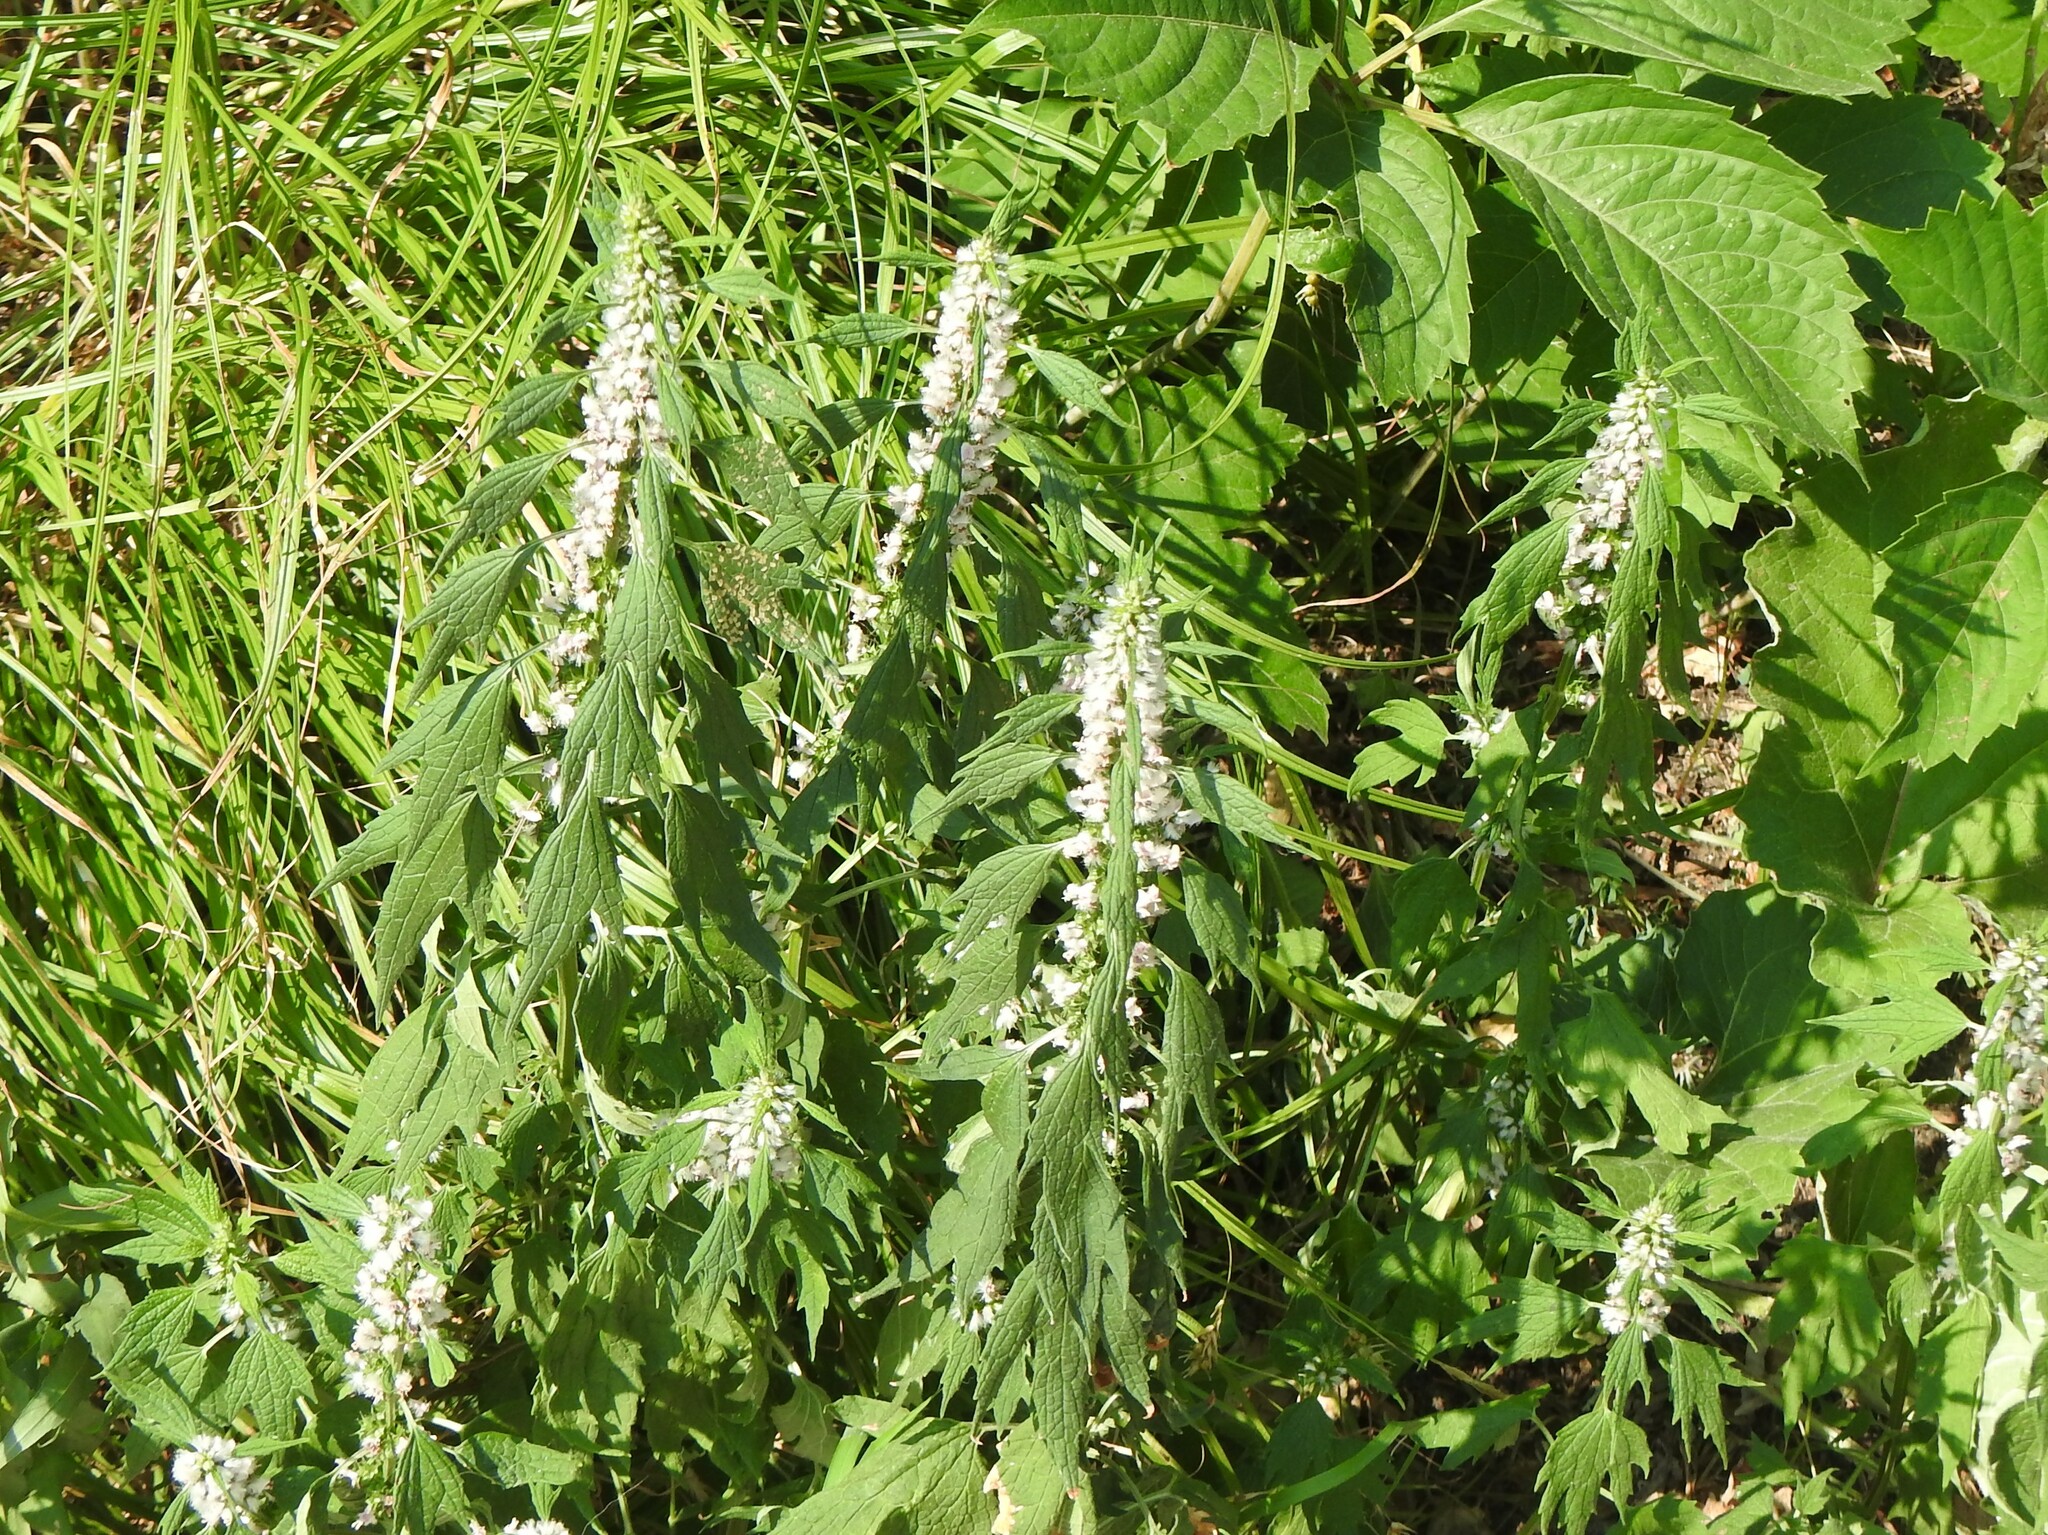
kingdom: Plantae
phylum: Tracheophyta
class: Magnoliopsida
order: Lamiales
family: Lamiaceae
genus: Leonurus
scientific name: Leonurus cardiaca
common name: Motherwort
